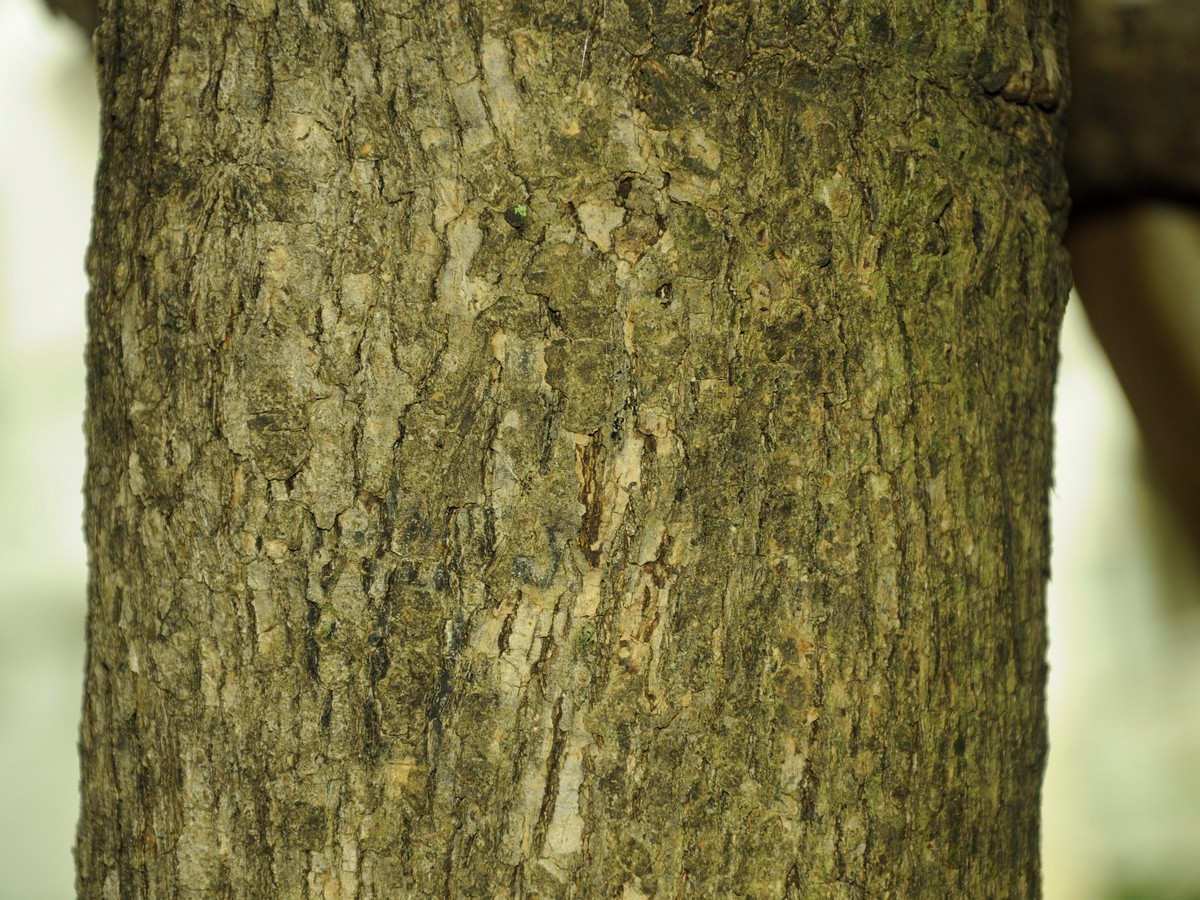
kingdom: Plantae
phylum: Tracheophyta
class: Magnoliopsida
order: Lamiales
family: Lamiaceae
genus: Tectona
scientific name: Tectona grandis
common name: Teak
